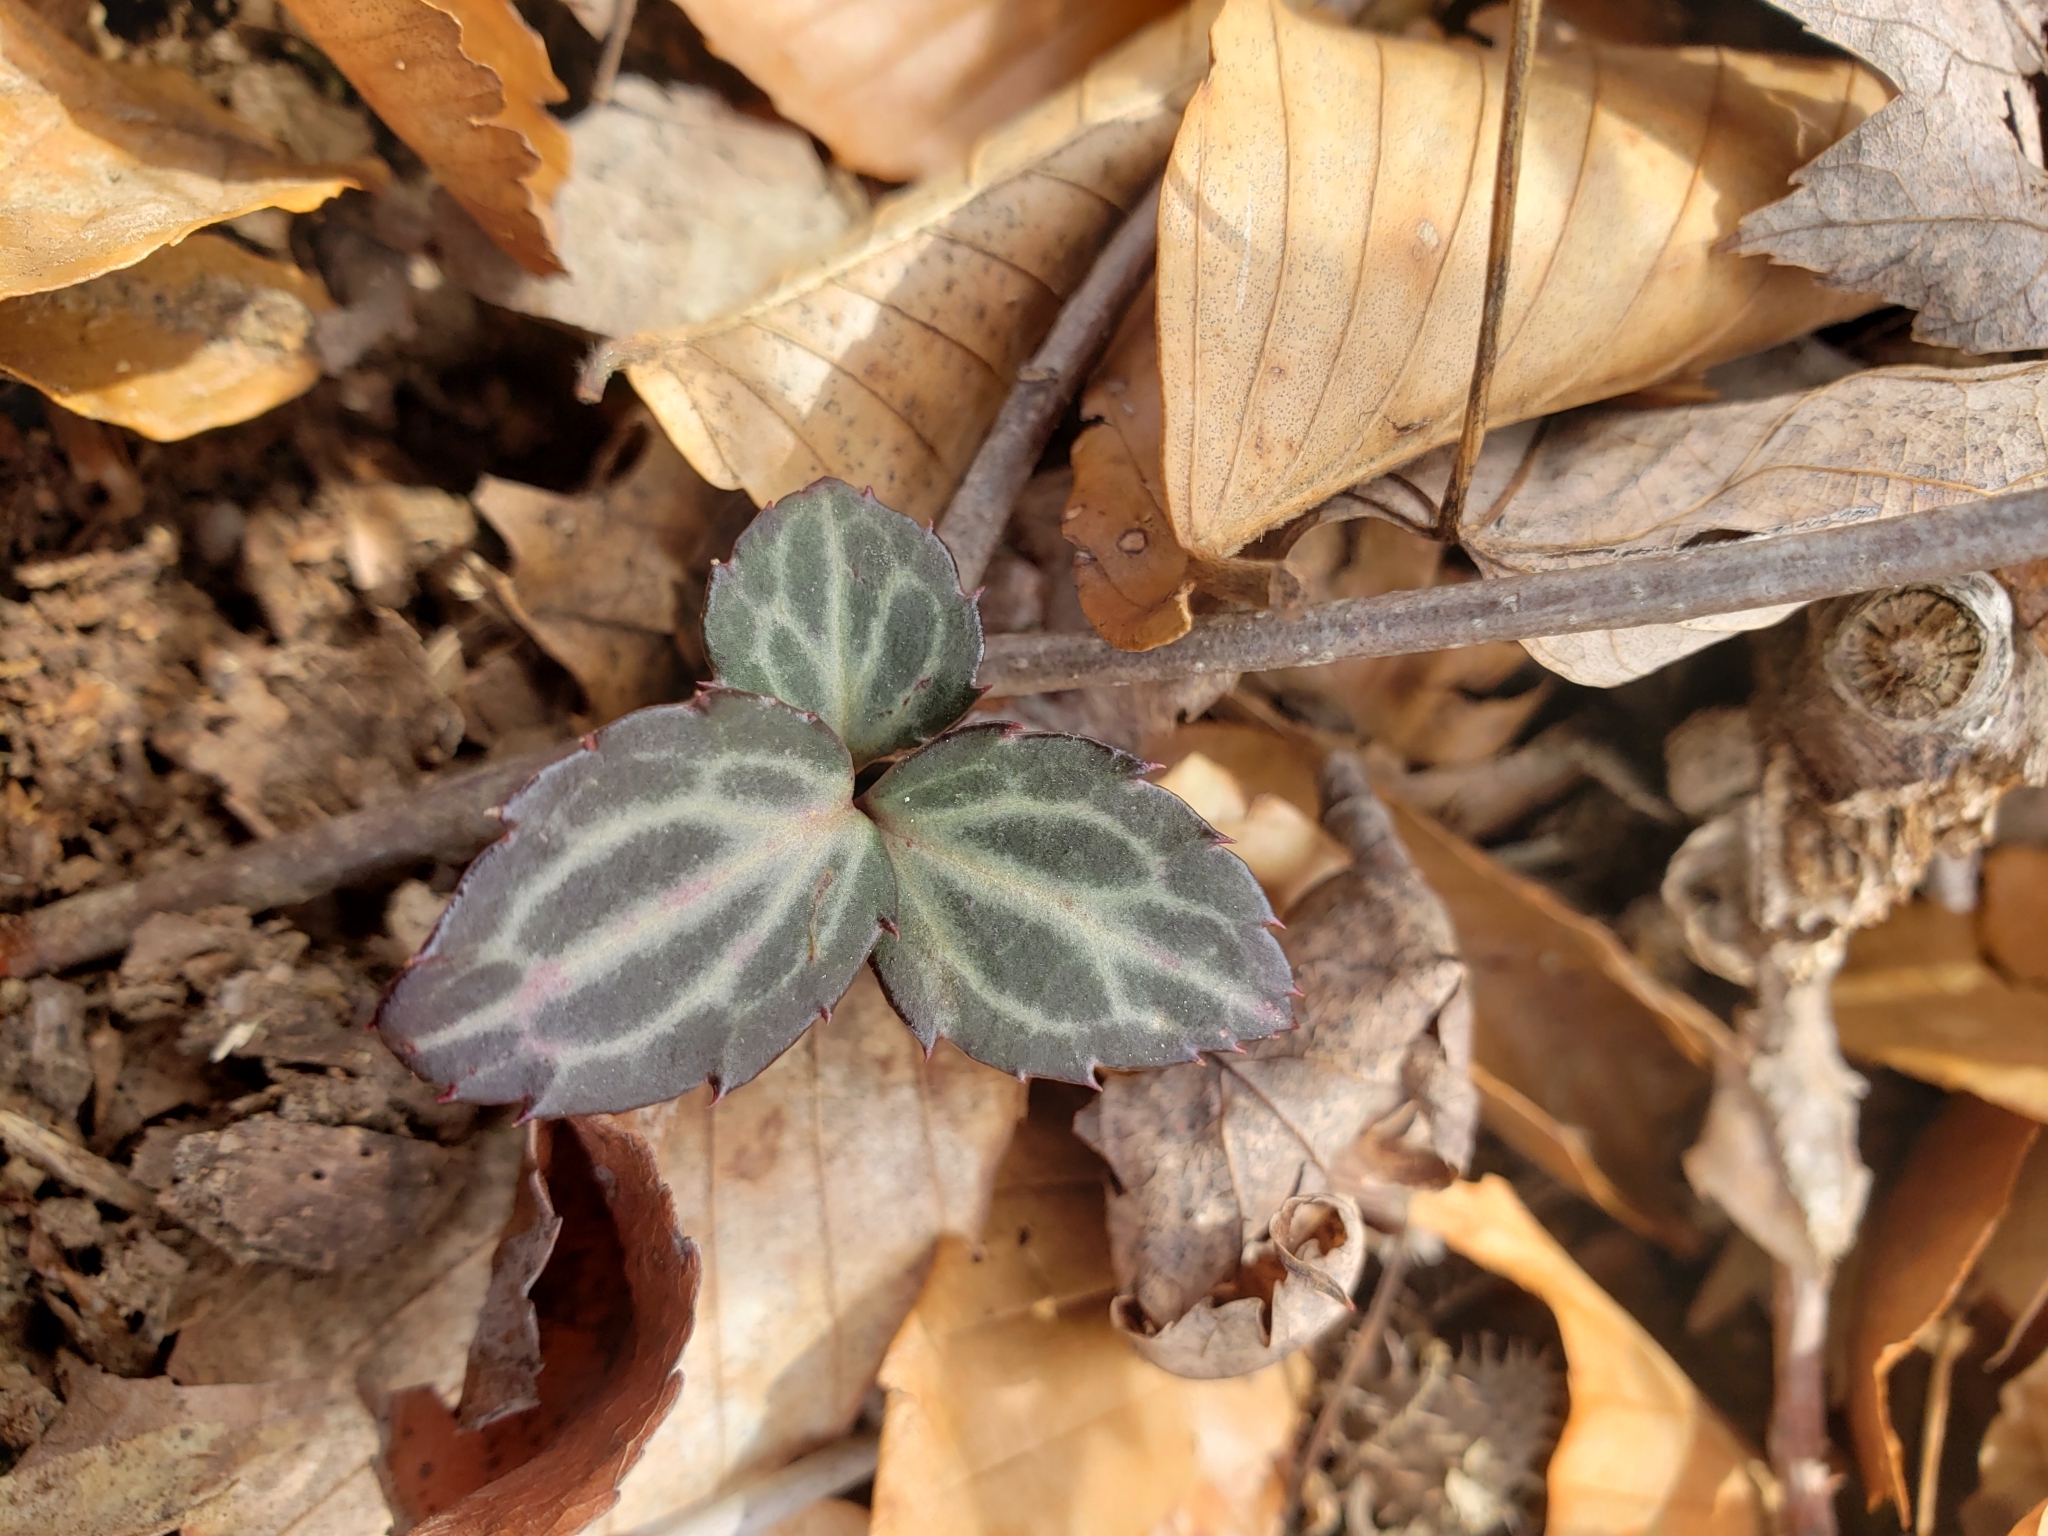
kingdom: Plantae
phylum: Tracheophyta
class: Magnoliopsida
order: Ericales
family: Ericaceae
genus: Chimaphila
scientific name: Chimaphila maculata
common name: Spotted pipsissewa
